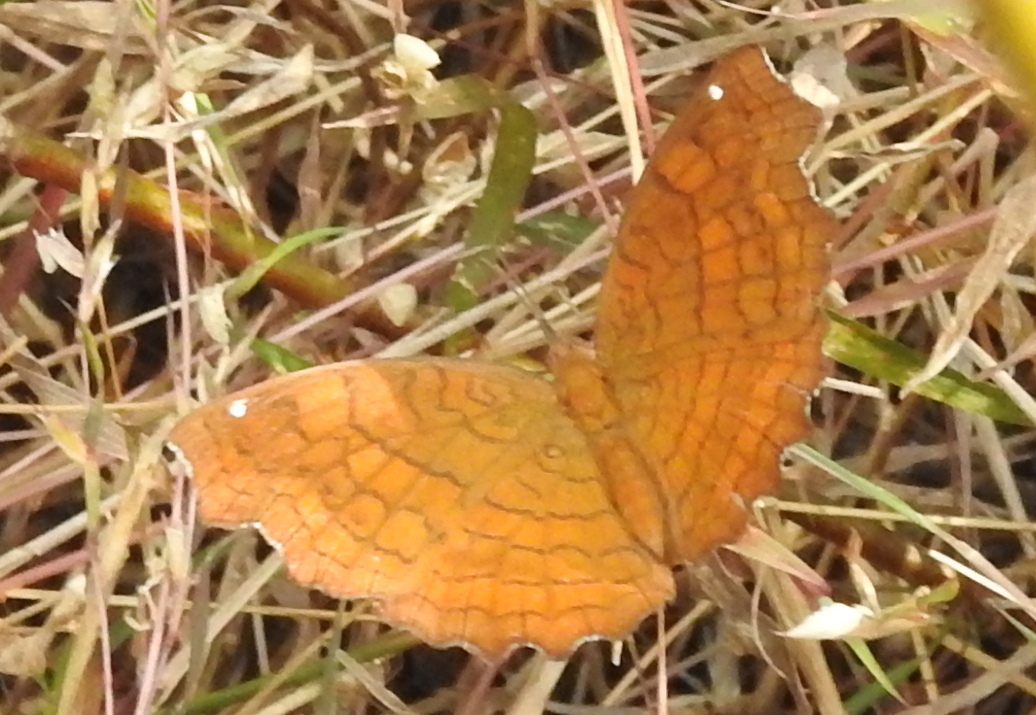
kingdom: Animalia
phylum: Arthropoda
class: Insecta
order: Lepidoptera
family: Nymphalidae
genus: Ariadne
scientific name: Ariadne ariadne
